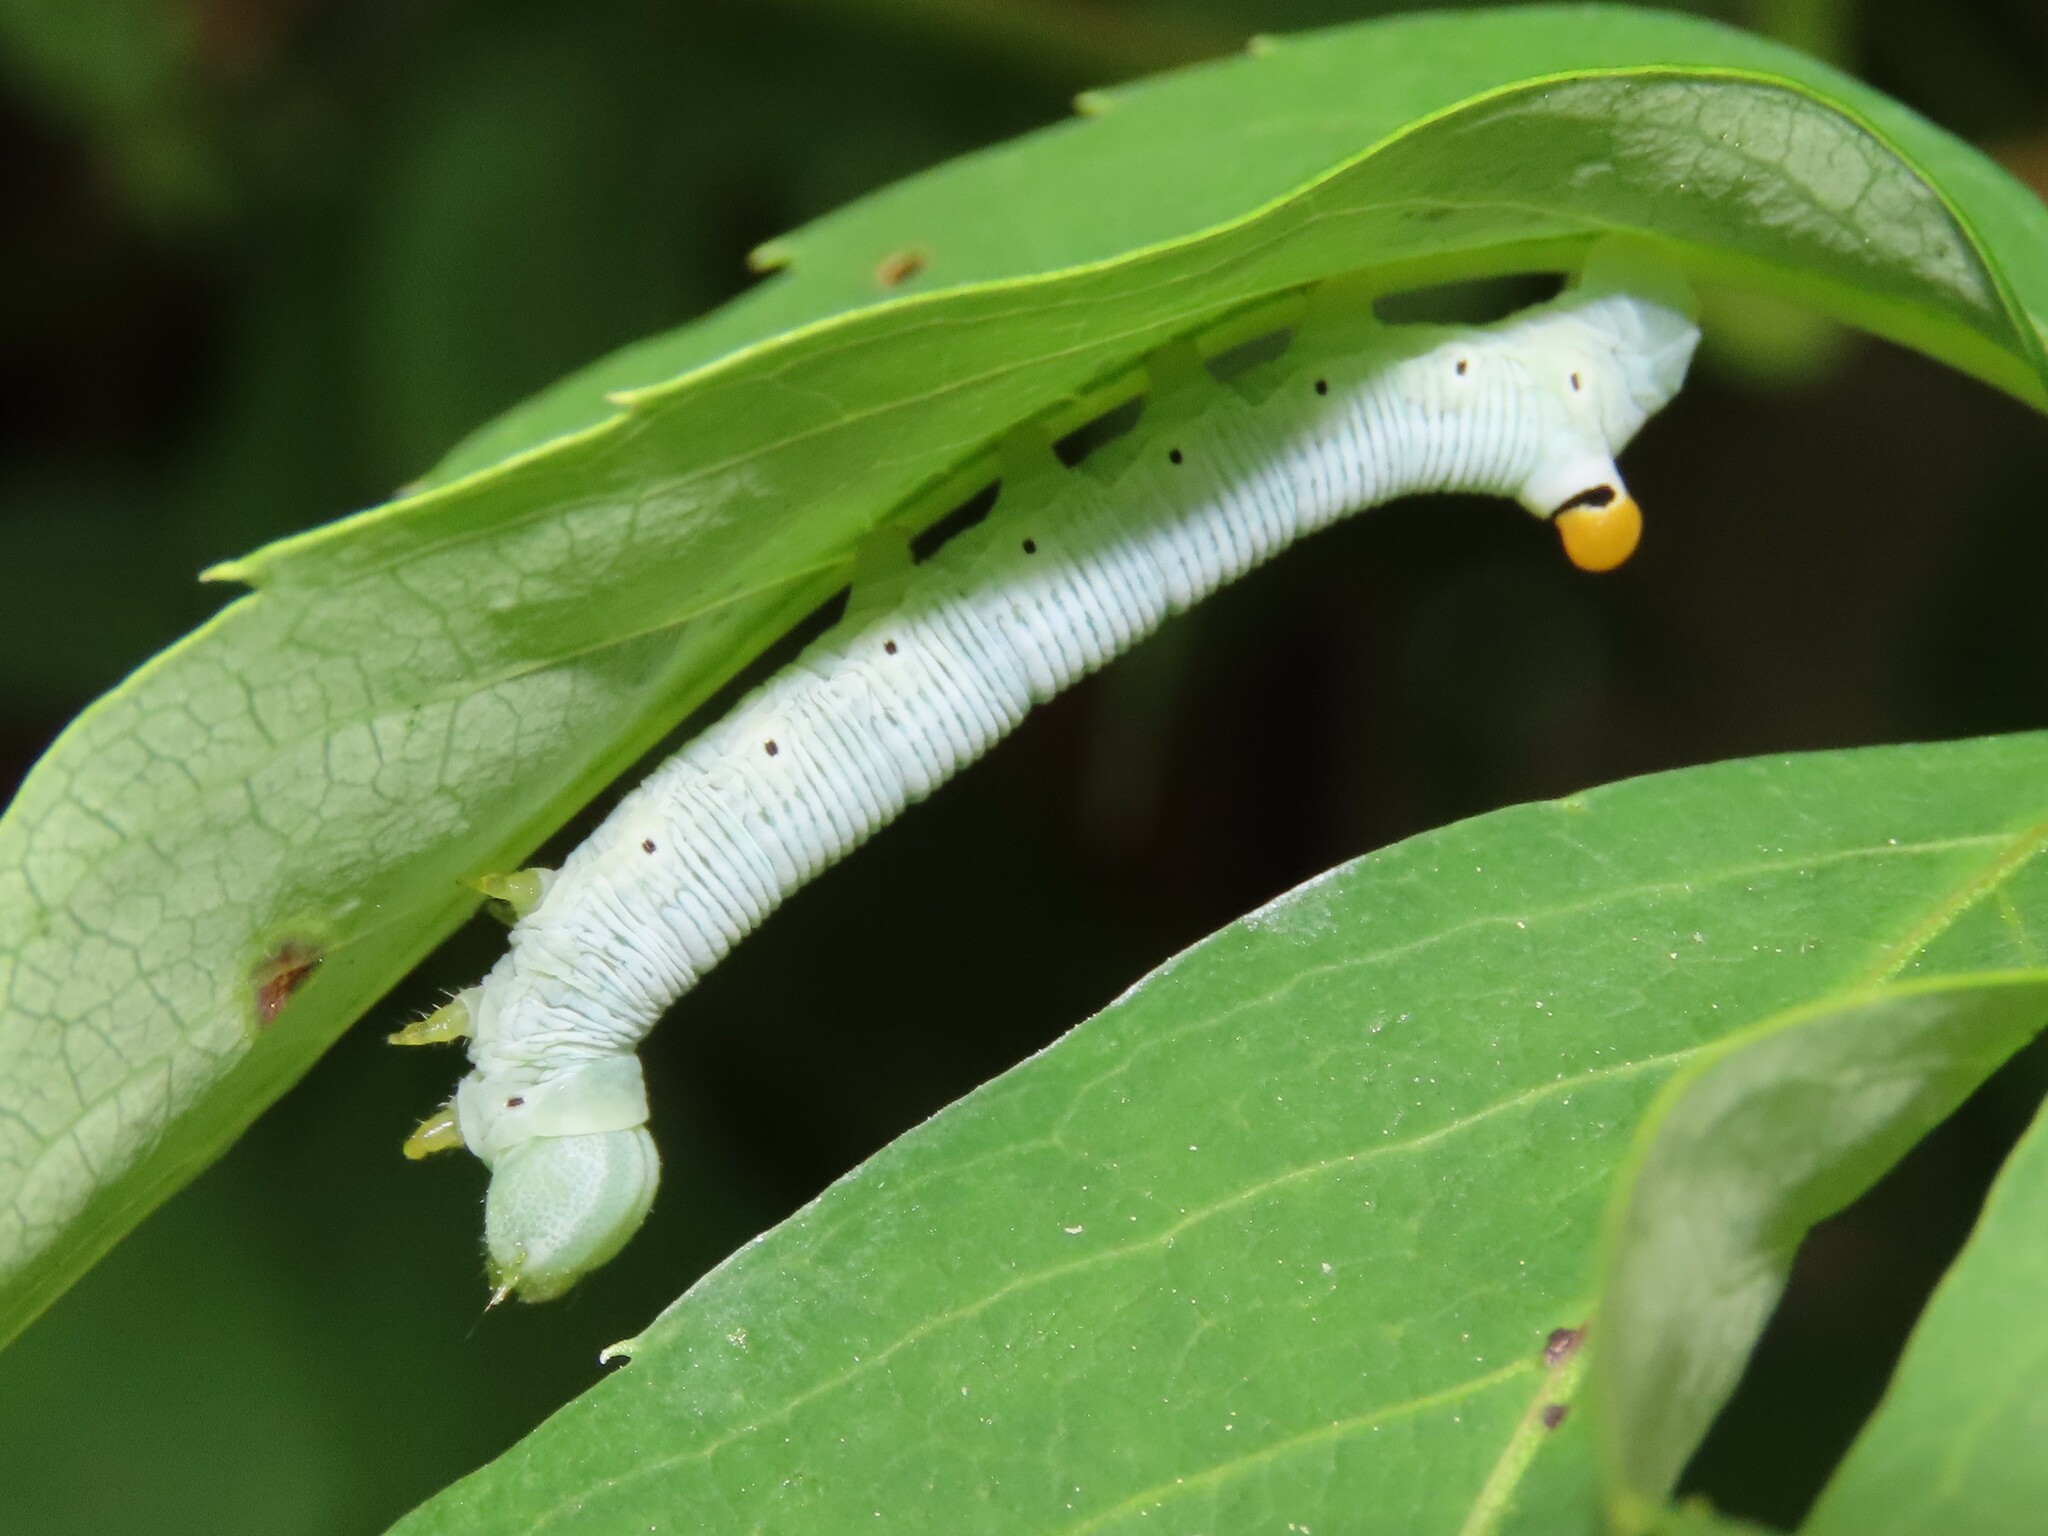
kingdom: Animalia
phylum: Arthropoda
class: Insecta
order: Lepidoptera
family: Sphingidae
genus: Sphecodina
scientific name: Sphecodina abbottii
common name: Abbott's sphinx
